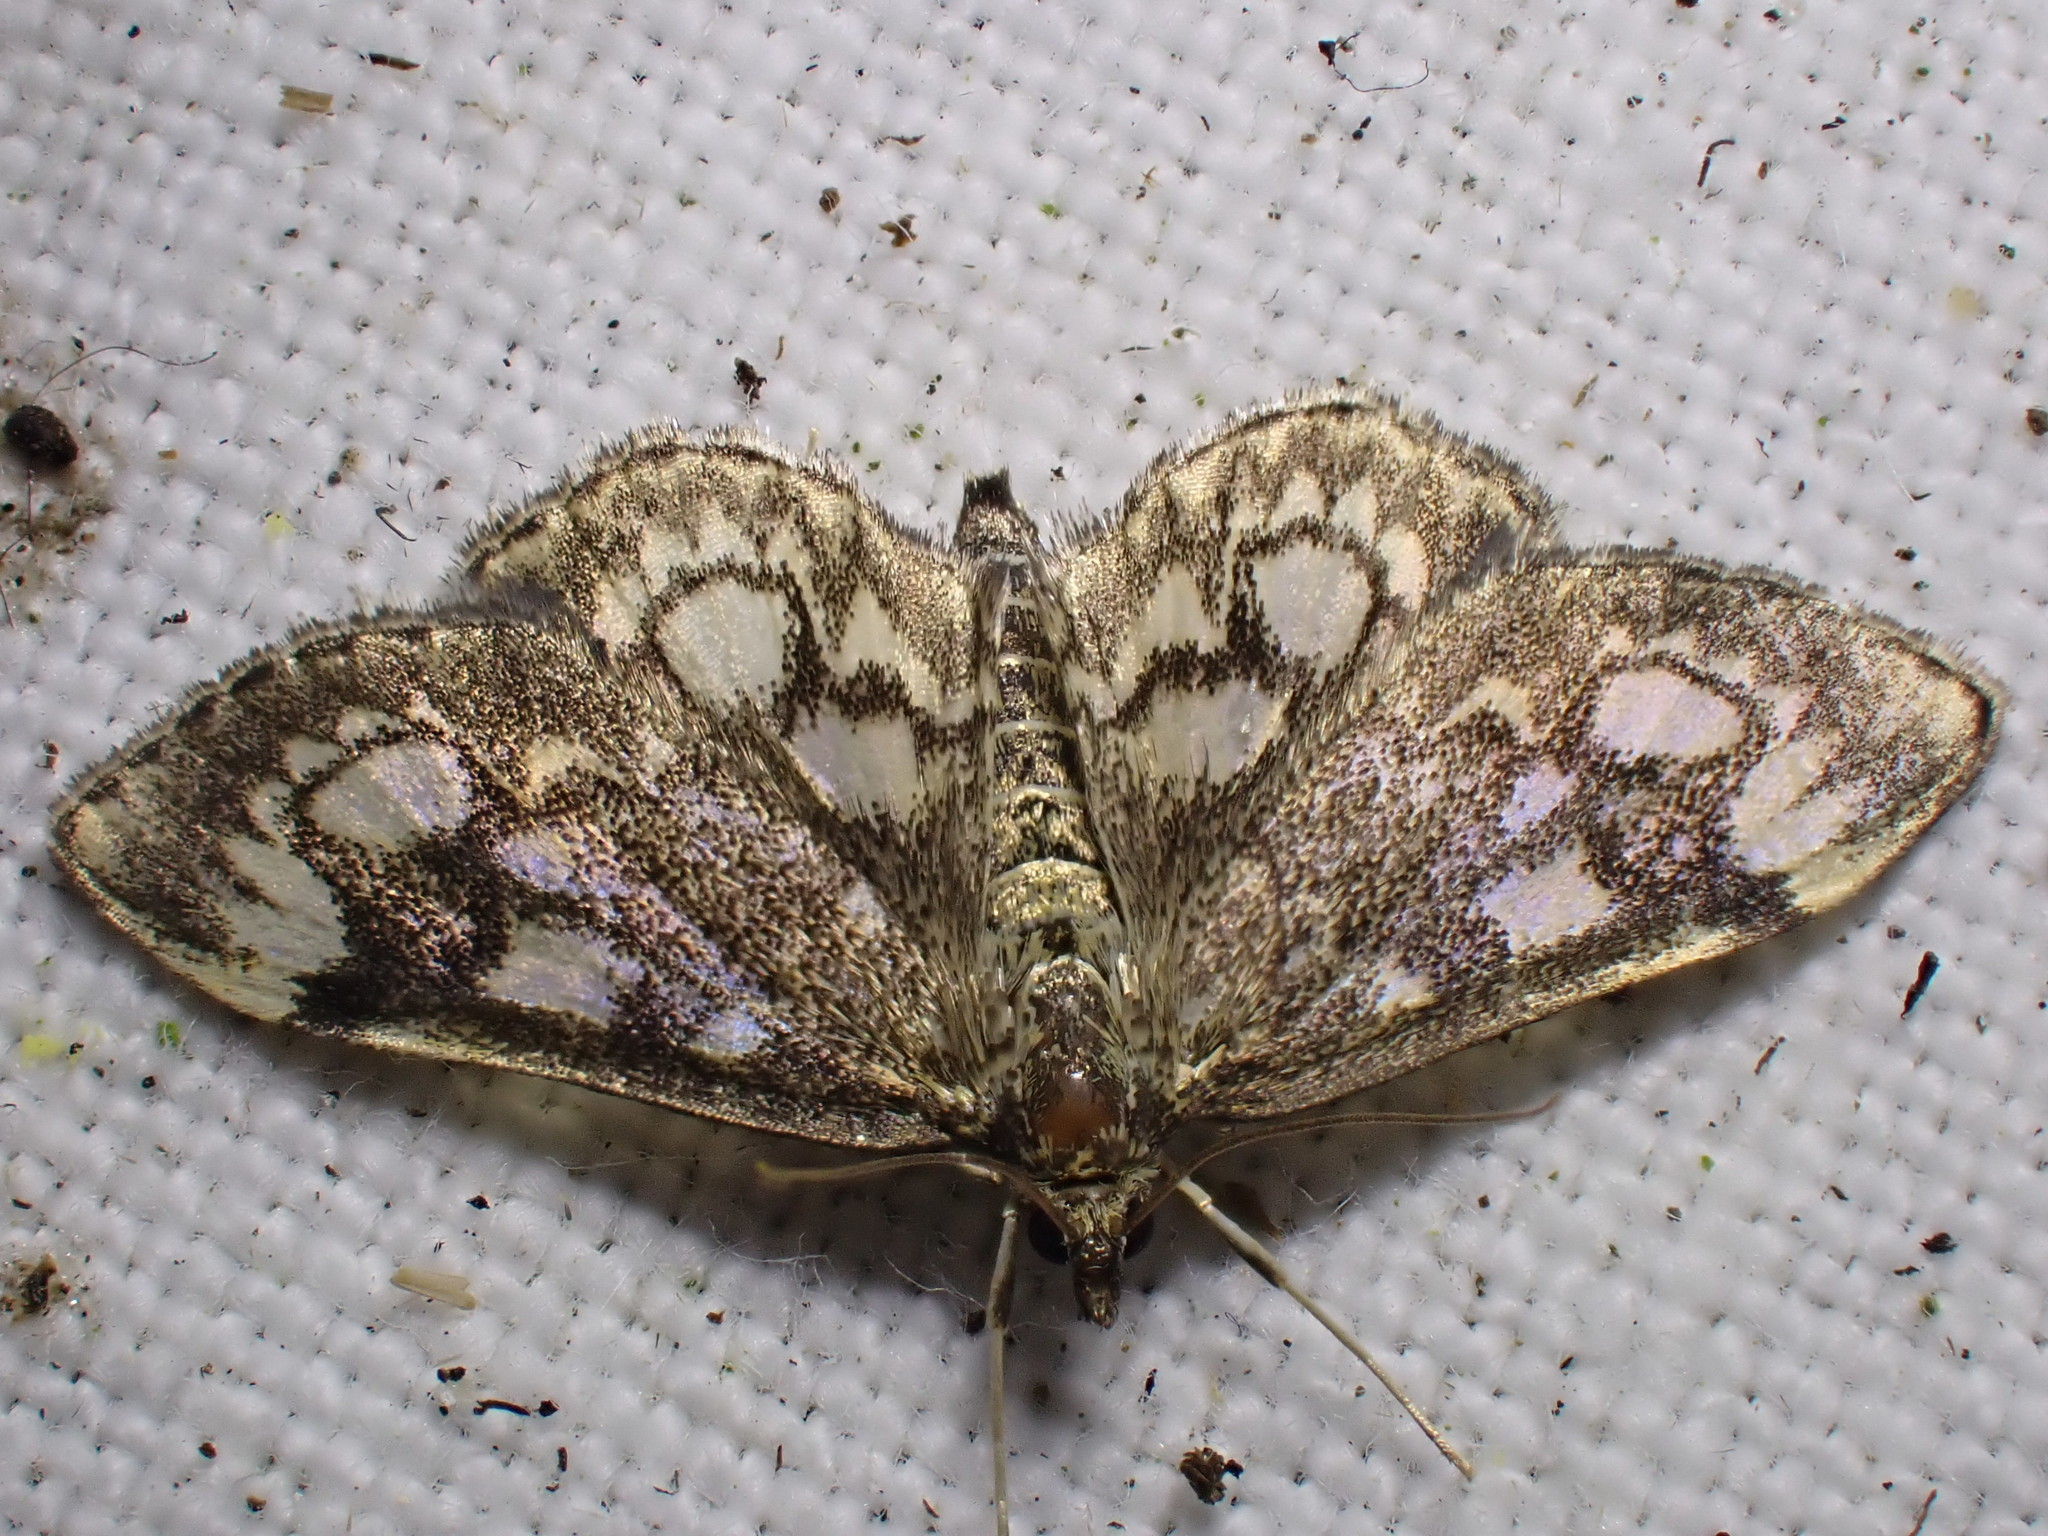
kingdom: Animalia
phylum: Arthropoda
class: Insecta
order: Lepidoptera
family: Crambidae
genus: Anania
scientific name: Anania coronata
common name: Elder pearl
